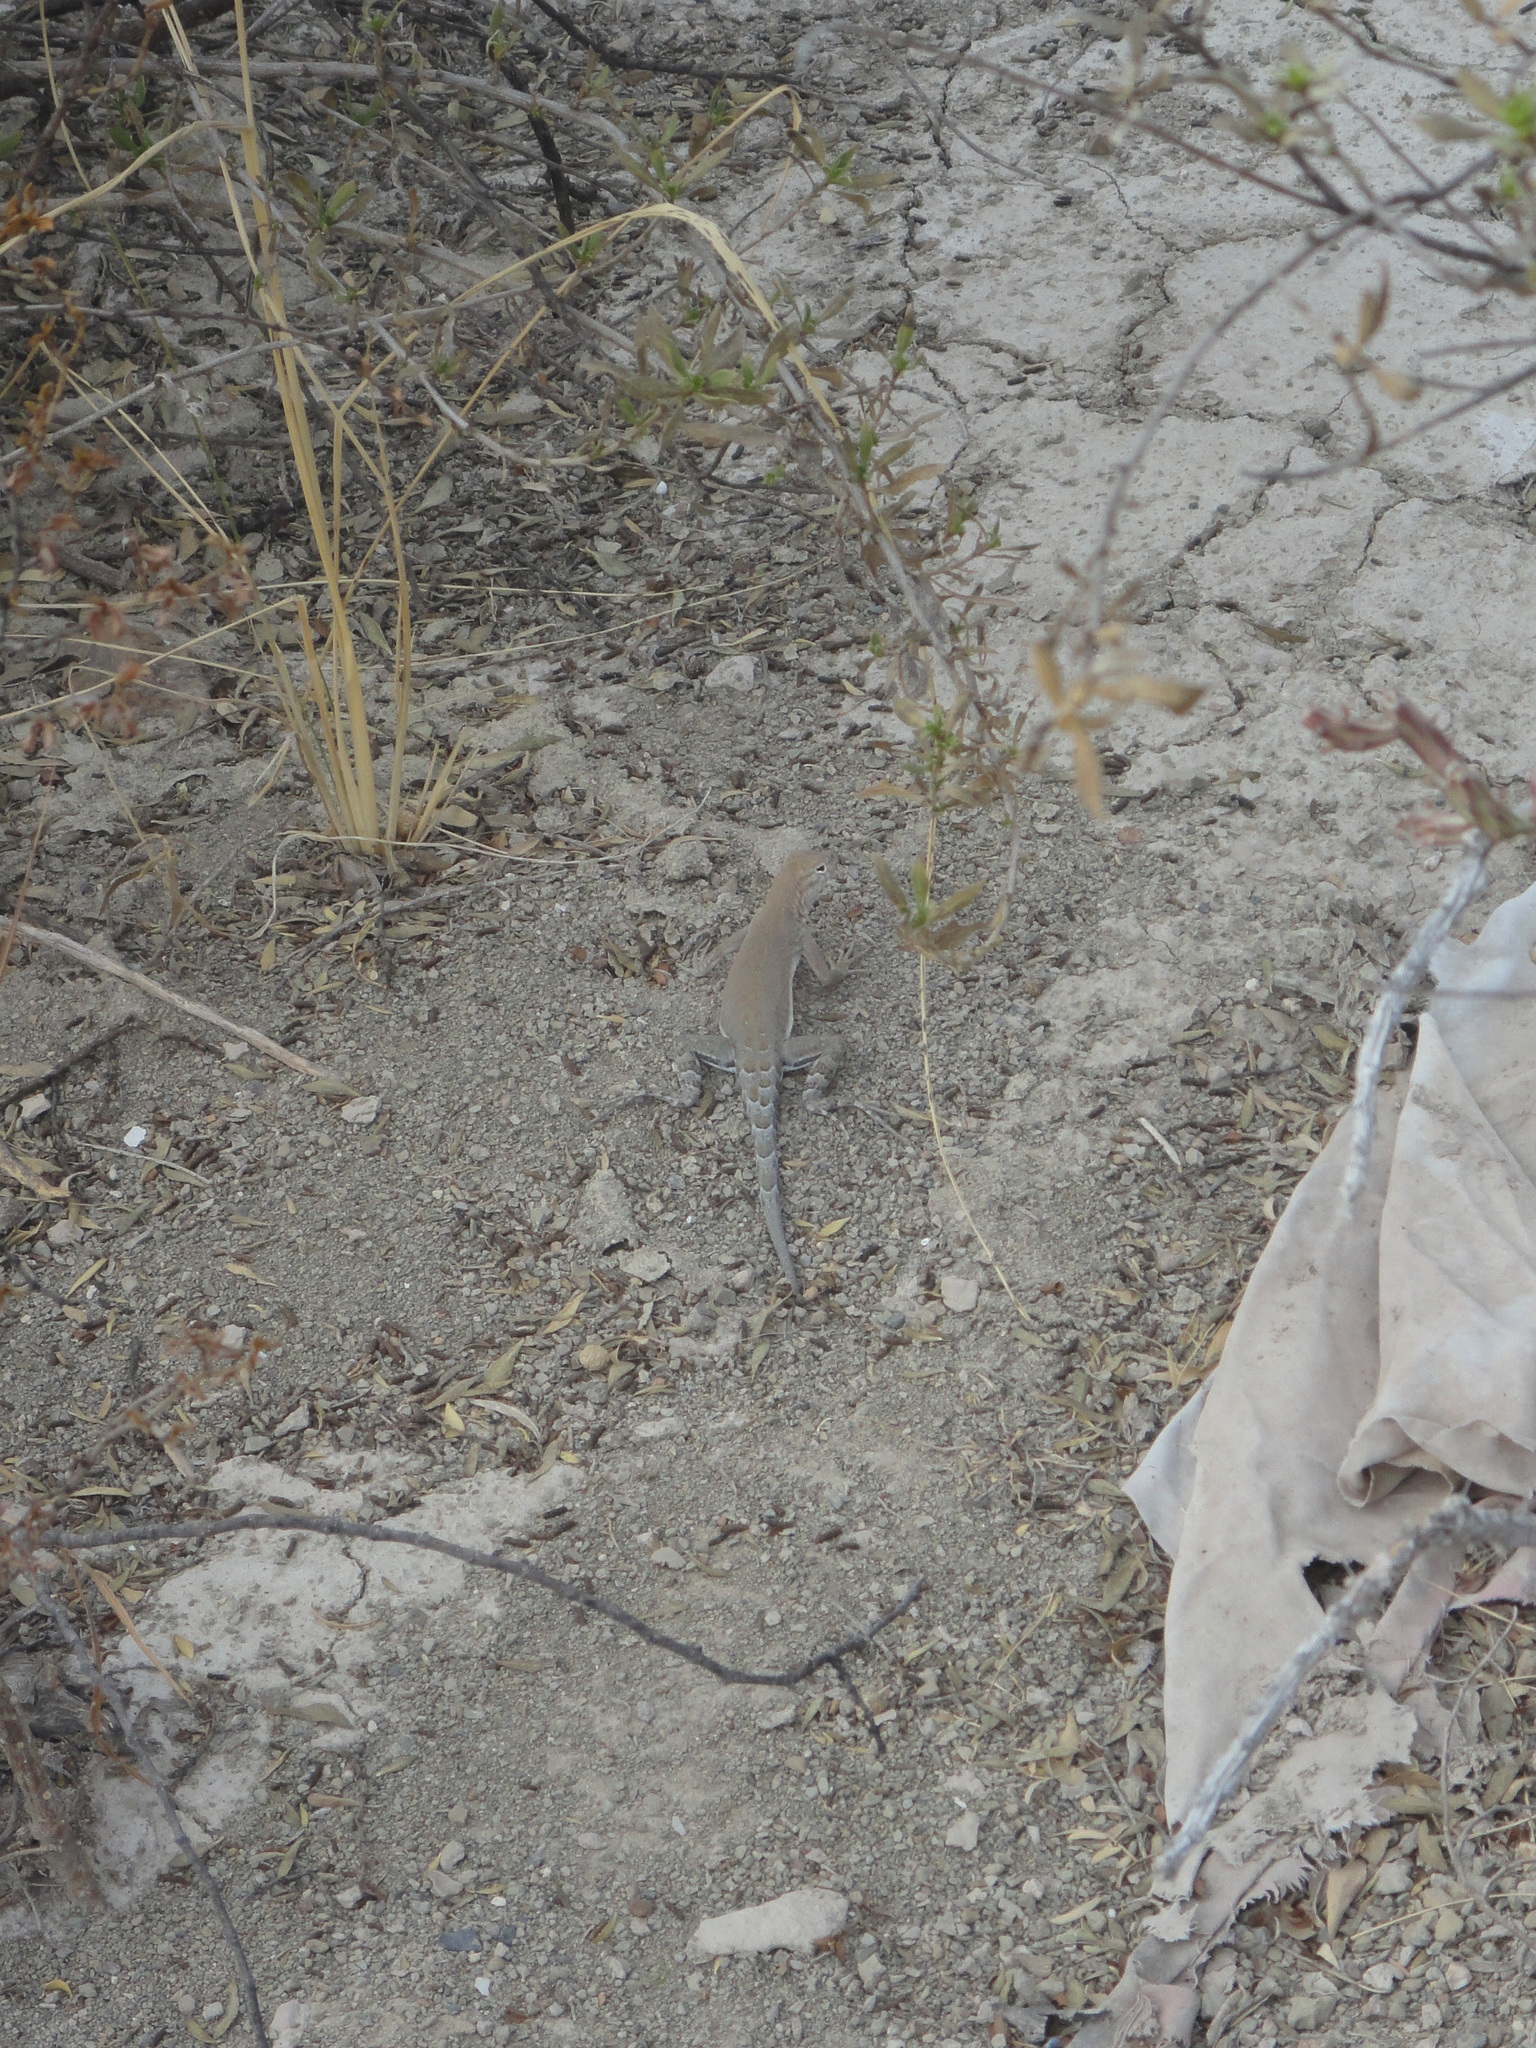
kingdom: Animalia
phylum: Chordata
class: Squamata
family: Phrynosomatidae
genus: Cophosaurus
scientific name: Cophosaurus texanus
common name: Greater earless lizard
